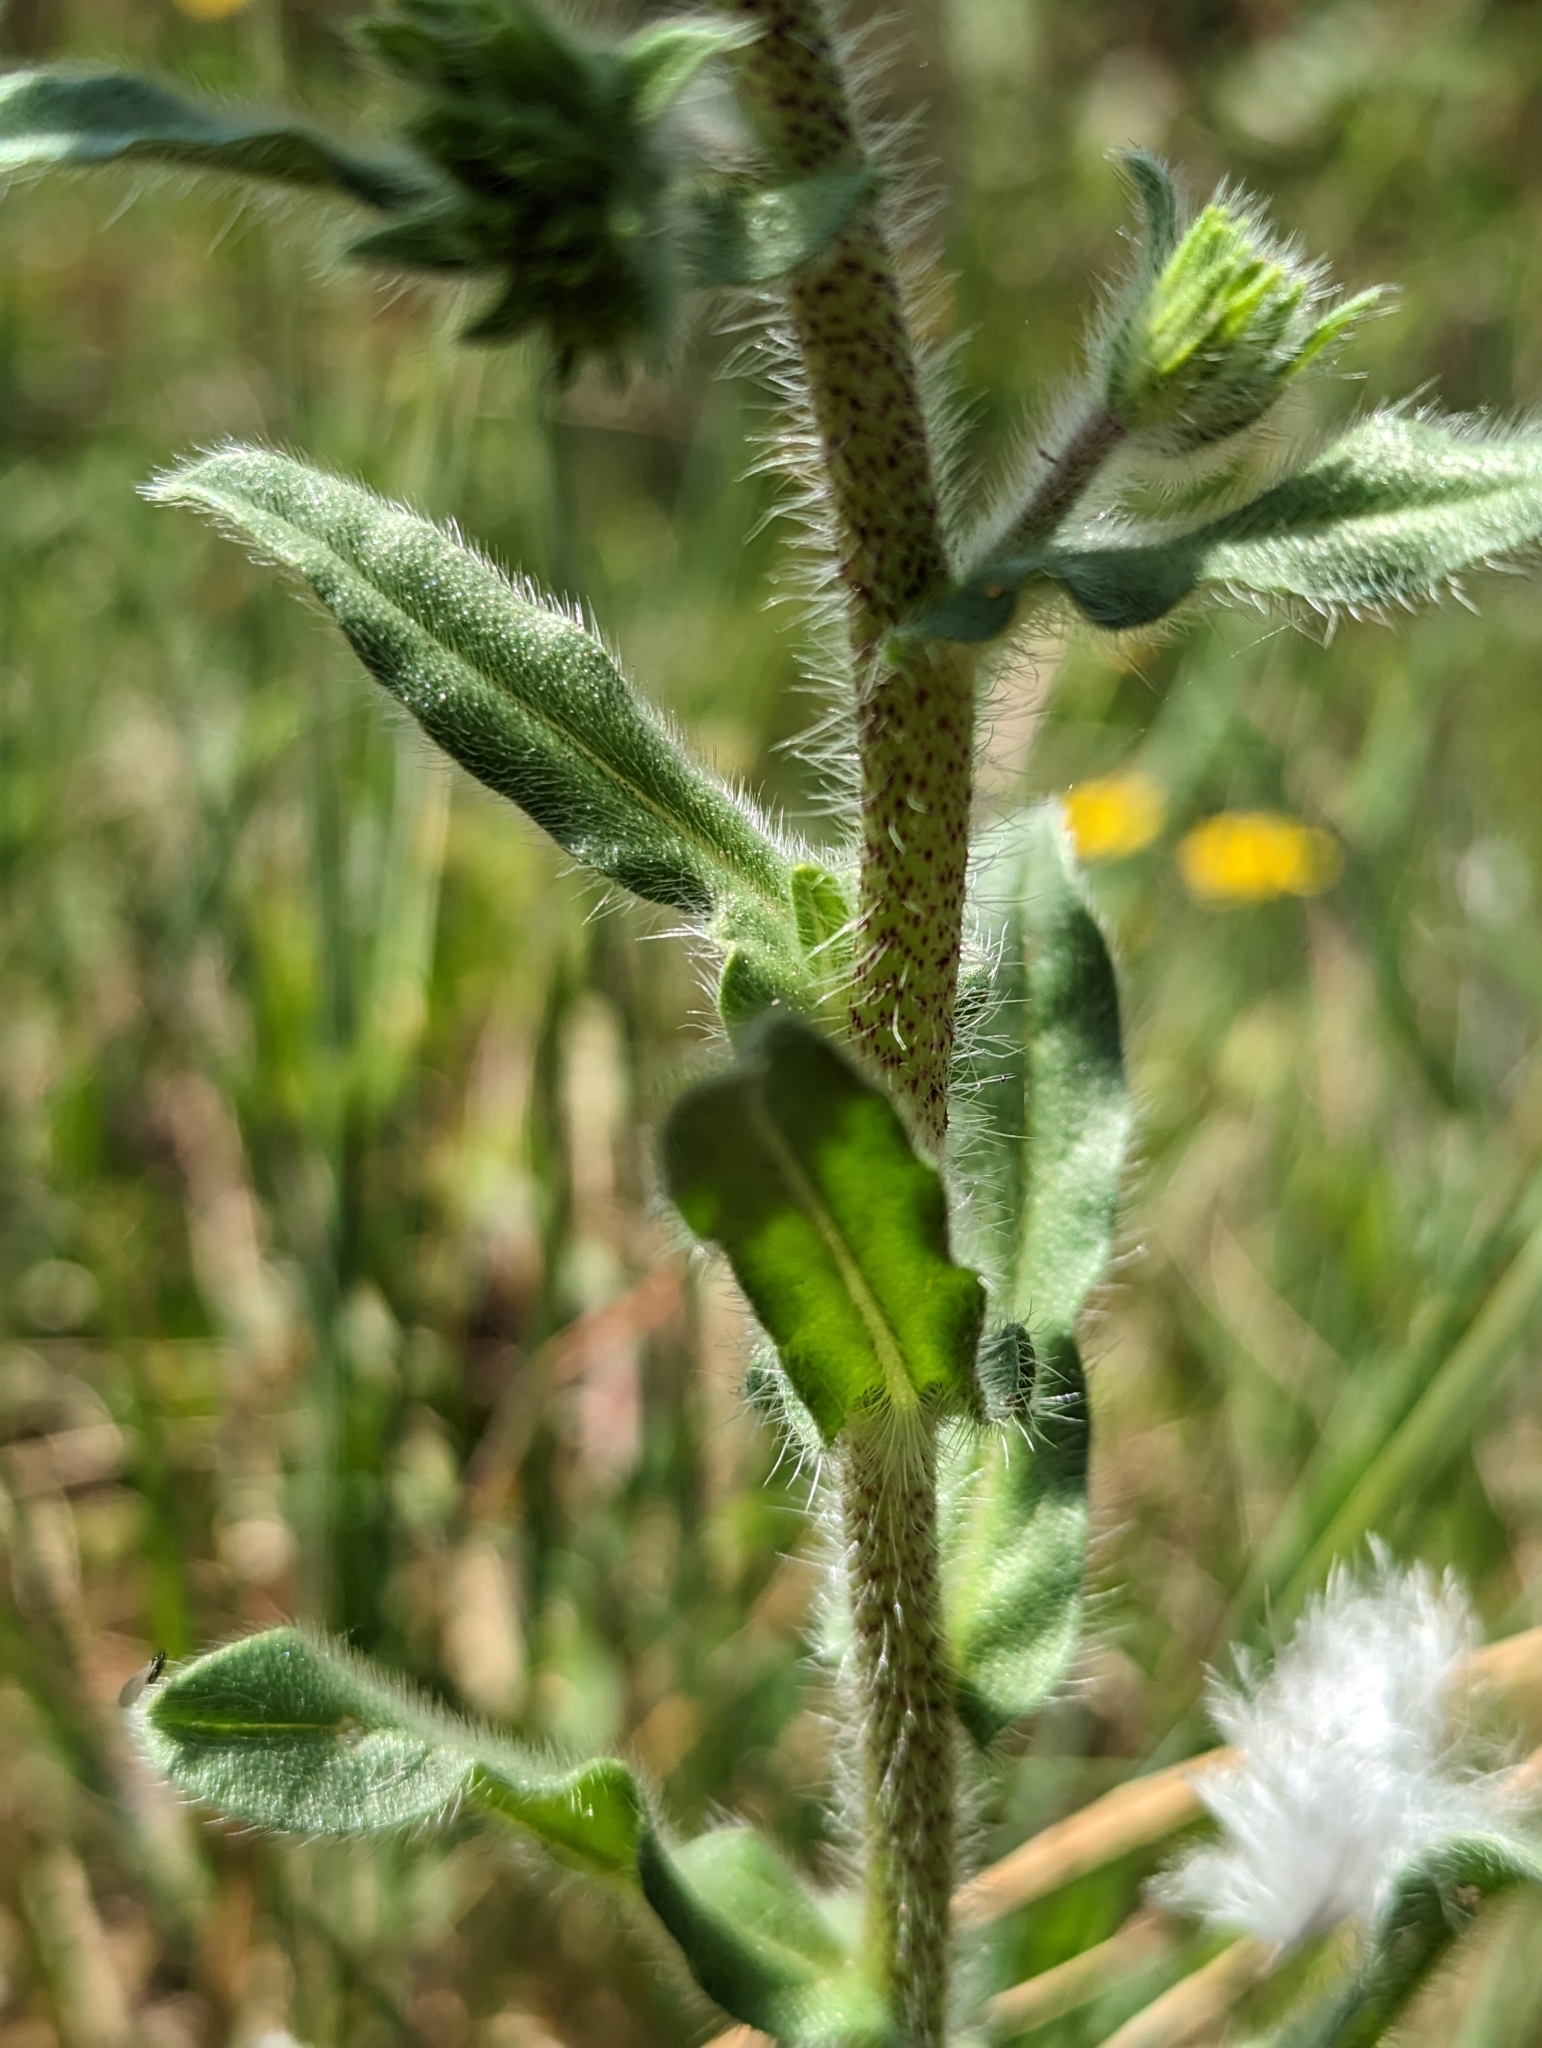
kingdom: Plantae
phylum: Tracheophyta
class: Magnoliopsida
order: Boraginales
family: Boraginaceae
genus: Echium
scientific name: Echium plantagineum
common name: Purple viper's-bugloss
